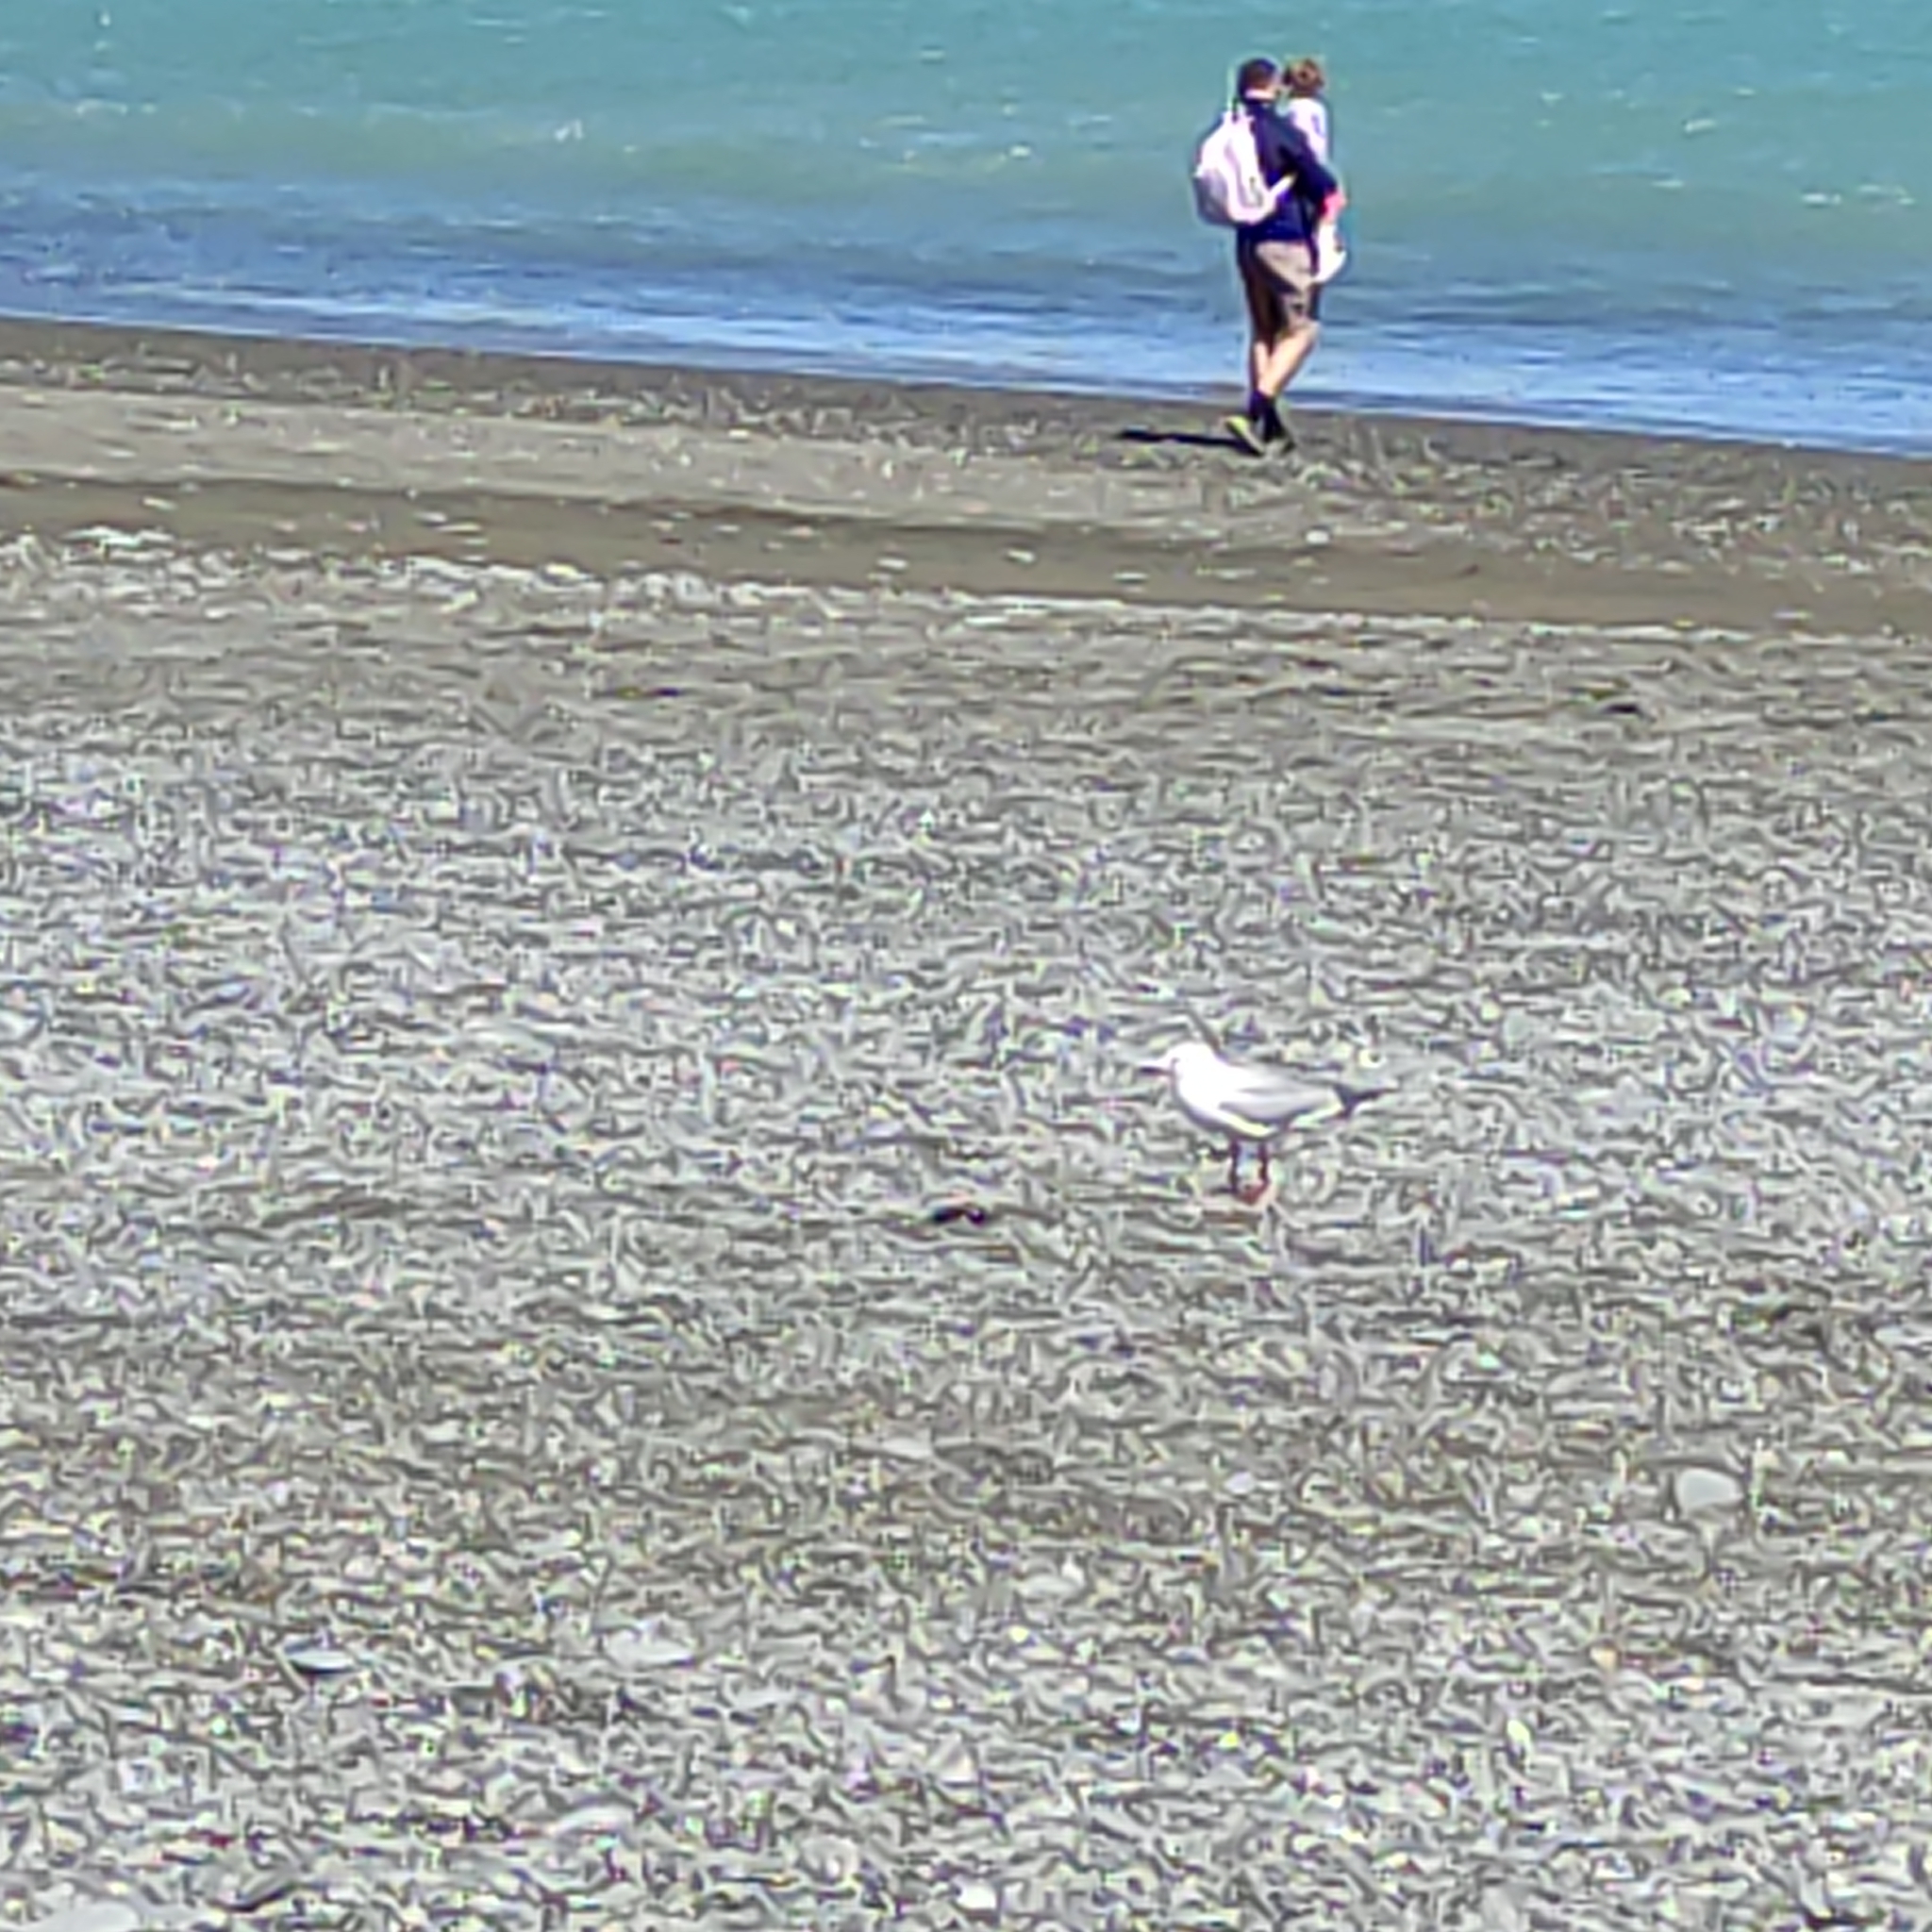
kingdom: Animalia
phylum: Chordata
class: Aves
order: Charadriiformes
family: Laridae
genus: Chroicocephalus
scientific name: Chroicocephalus bulleri
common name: Black-billed gull
